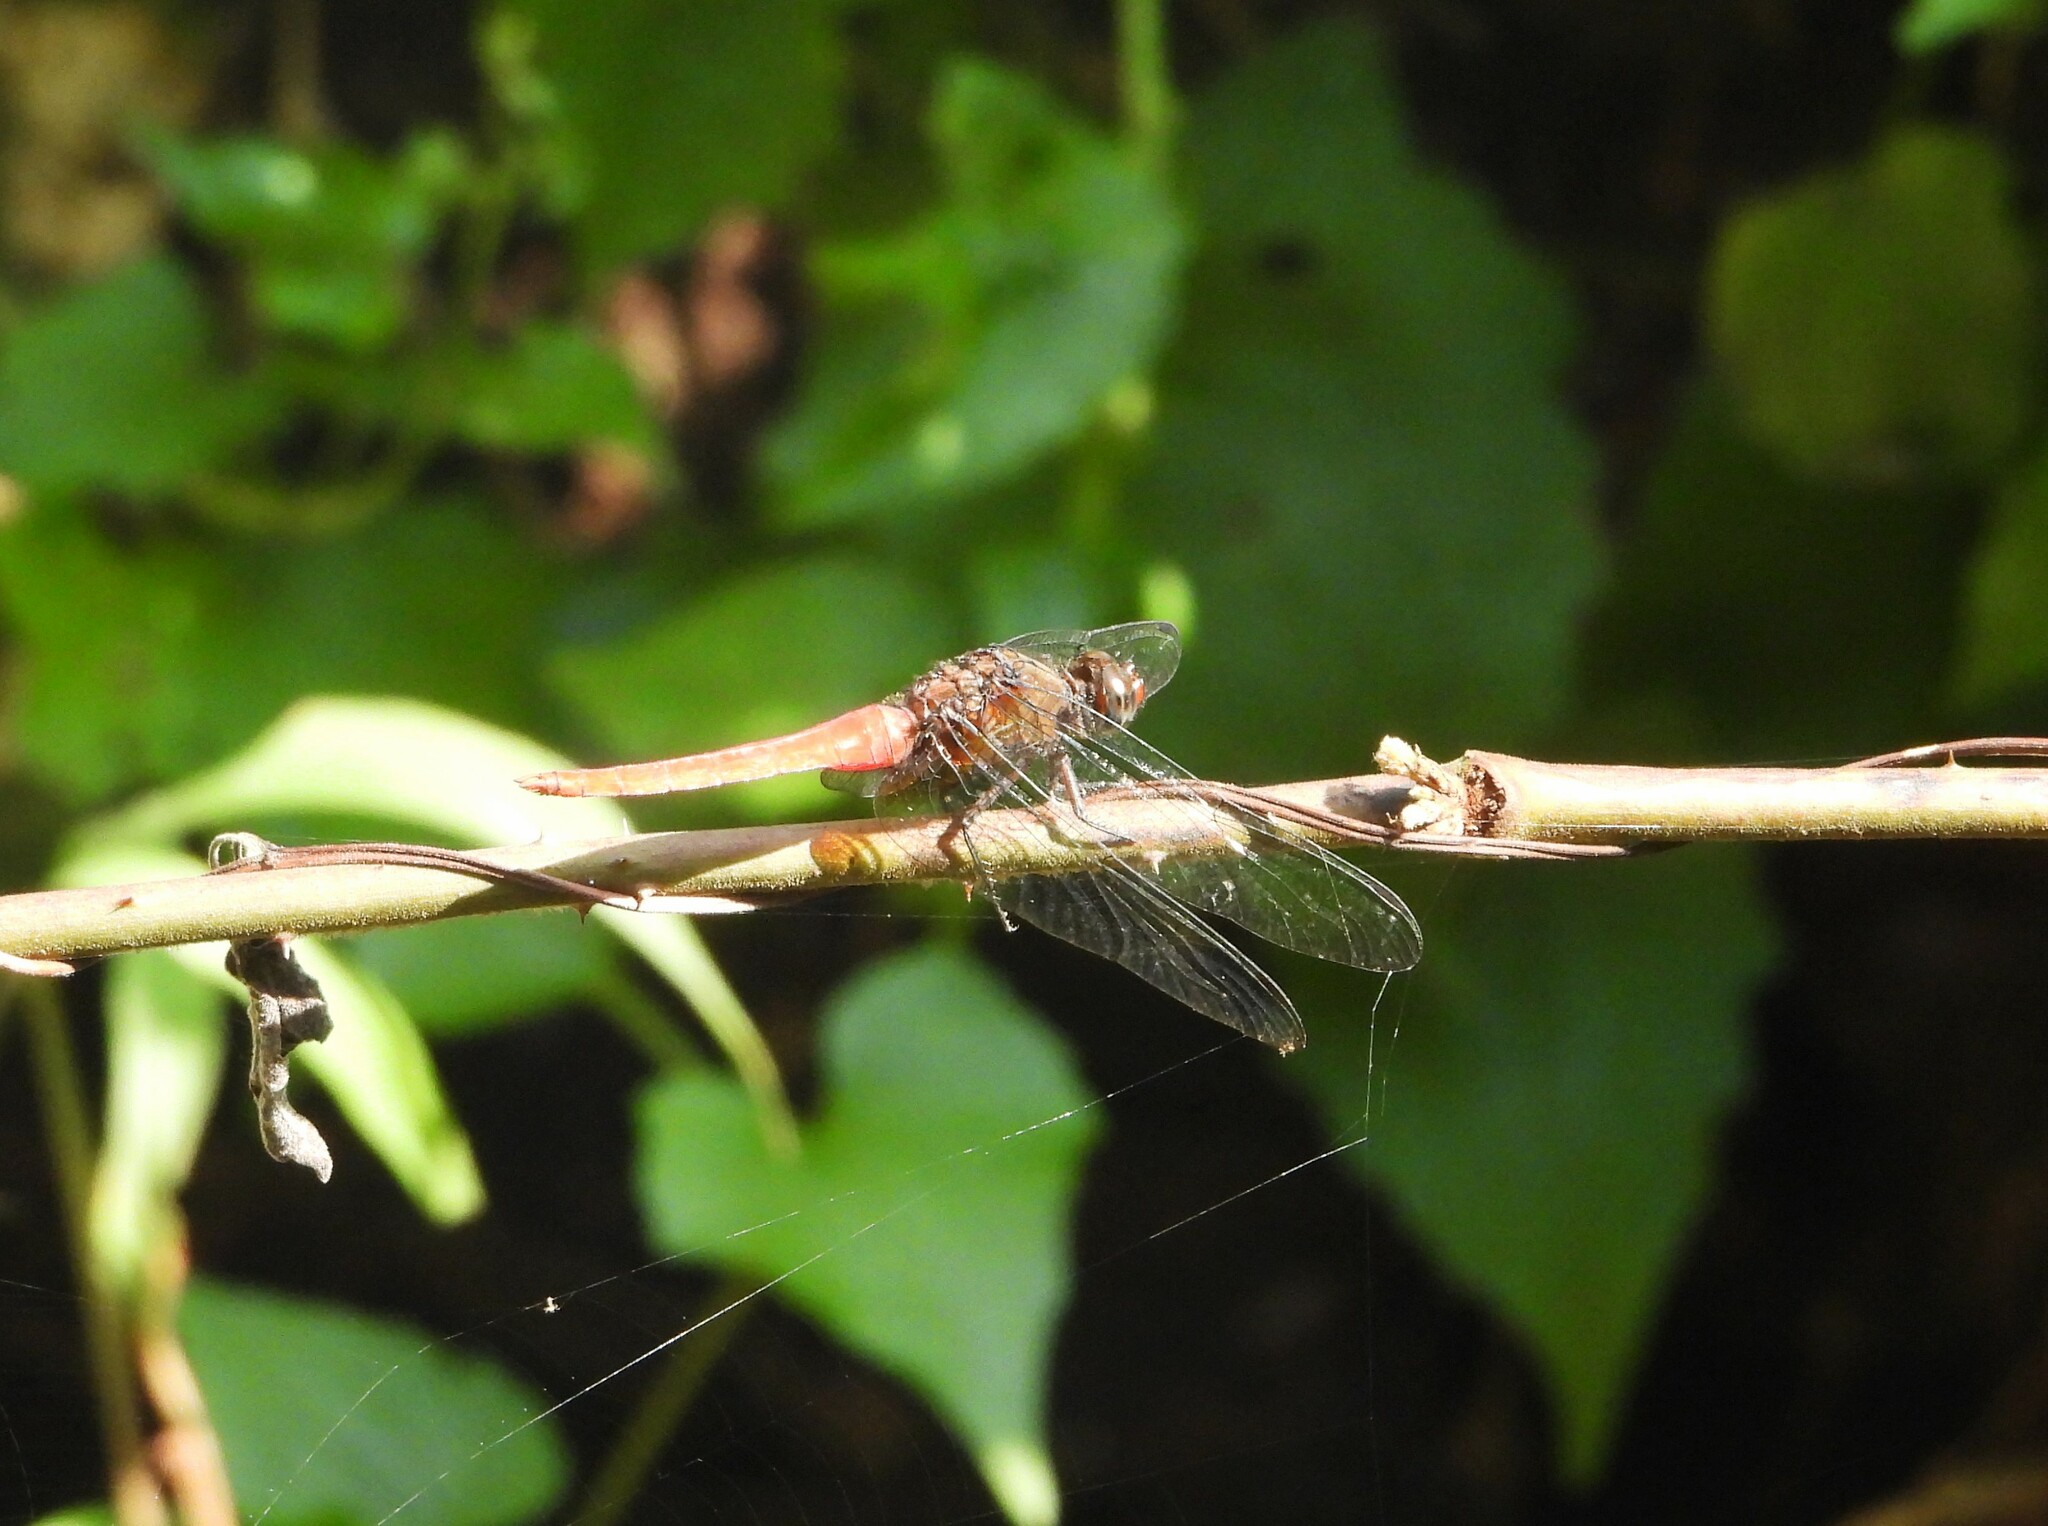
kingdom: Animalia
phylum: Arthropoda
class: Insecta
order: Odonata
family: Libellulidae
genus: Orthetrum
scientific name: Orthetrum chrysis
